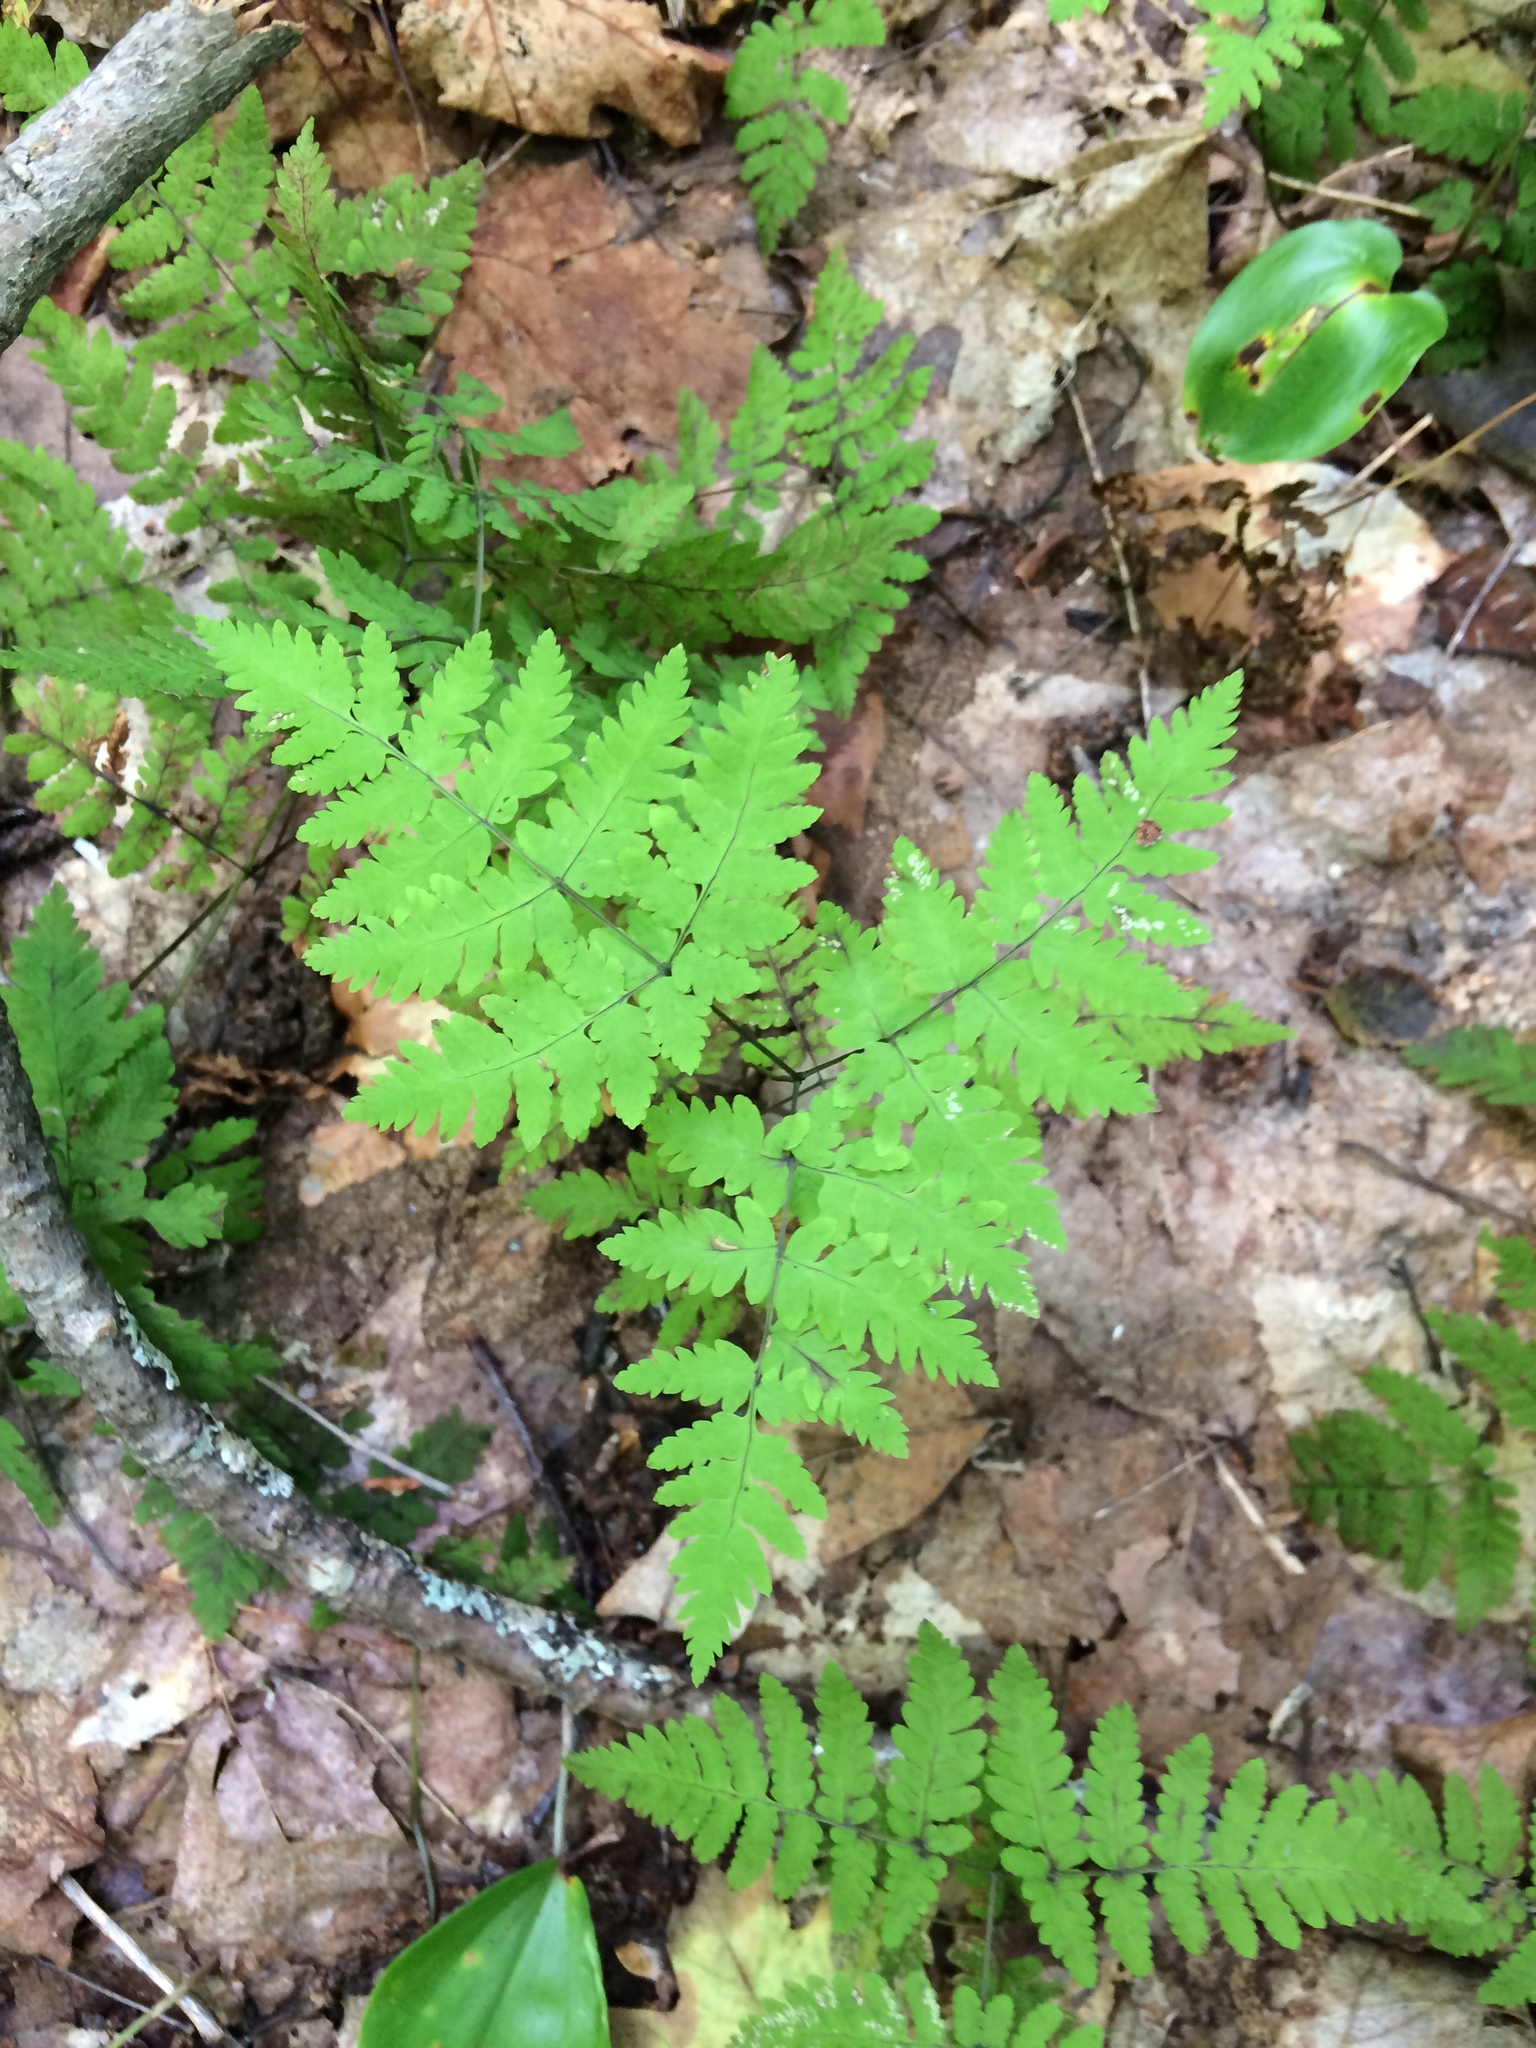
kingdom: Plantae
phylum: Tracheophyta
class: Polypodiopsida
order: Polypodiales
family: Cystopteridaceae
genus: Gymnocarpium
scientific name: Gymnocarpium dryopteris
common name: Oak fern
